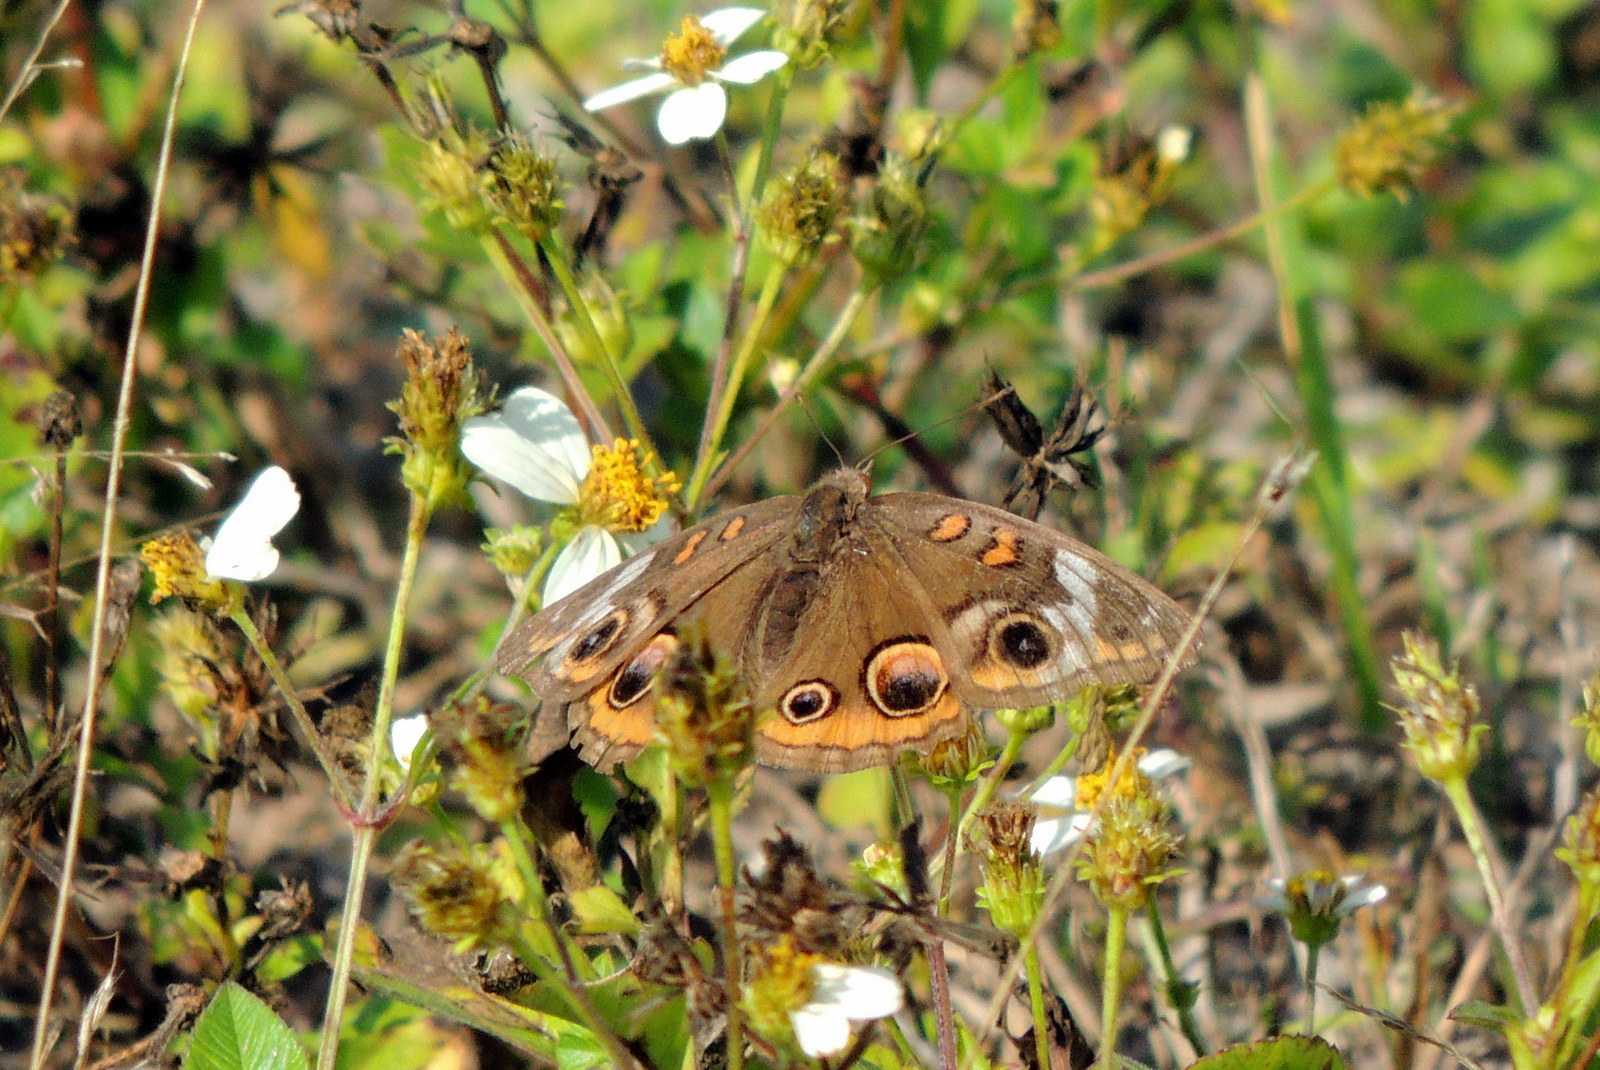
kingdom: Animalia
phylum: Arthropoda
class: Insecta
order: Lepidoptera
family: Nymphalidae
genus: Junonia
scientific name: Junonia coenia
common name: Common buckeye
